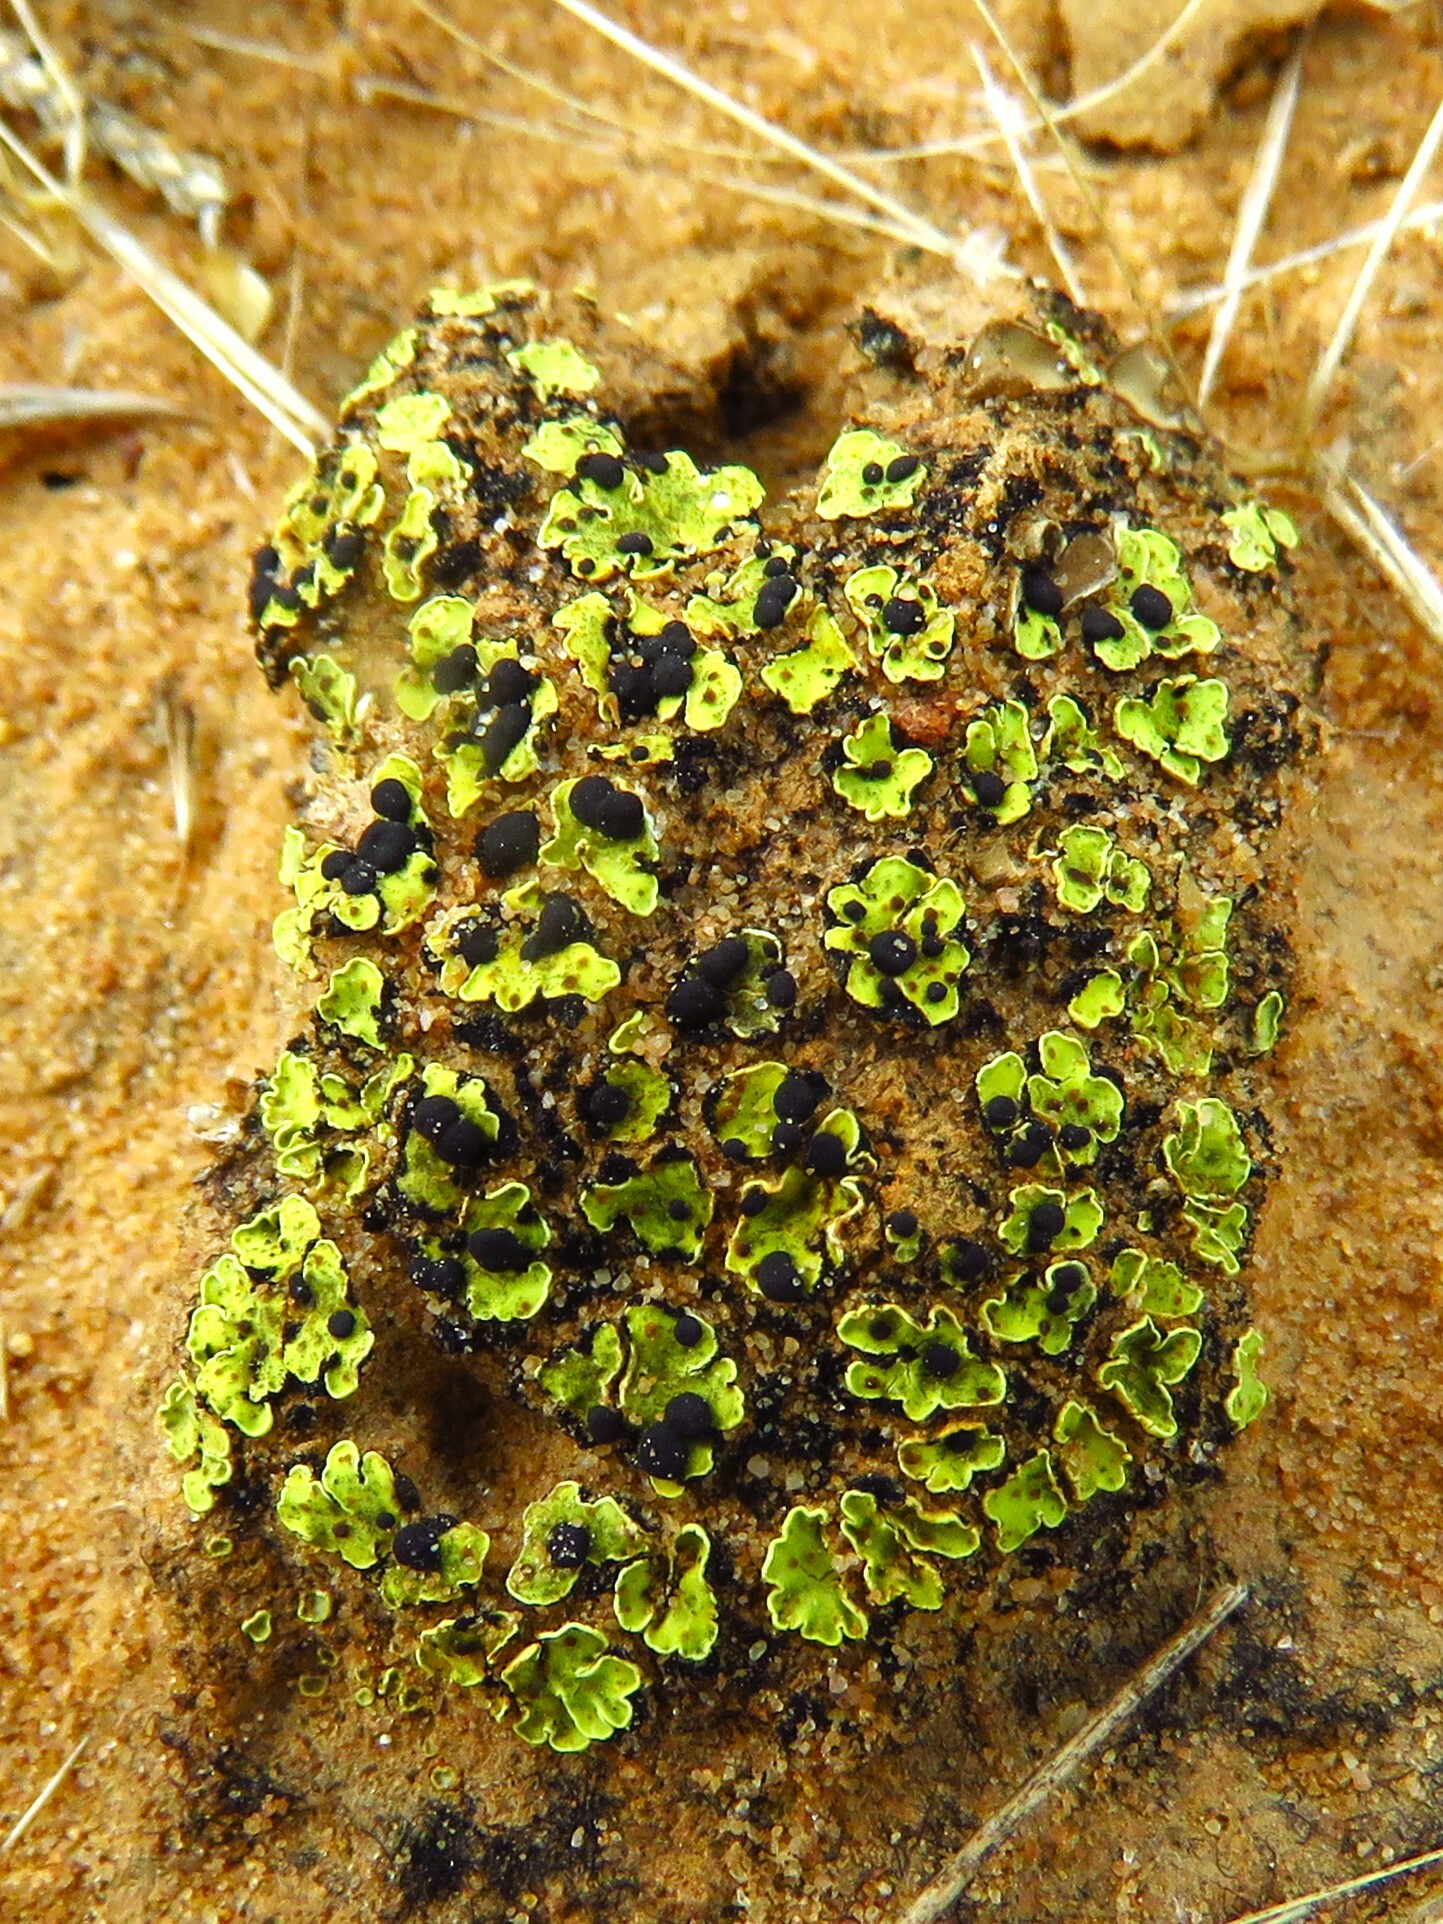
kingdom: Fungi
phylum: Ascomycota
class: Lecanoromycetes
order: Lecanorales
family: Psoraceae
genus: Psora
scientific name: Psora icterica
